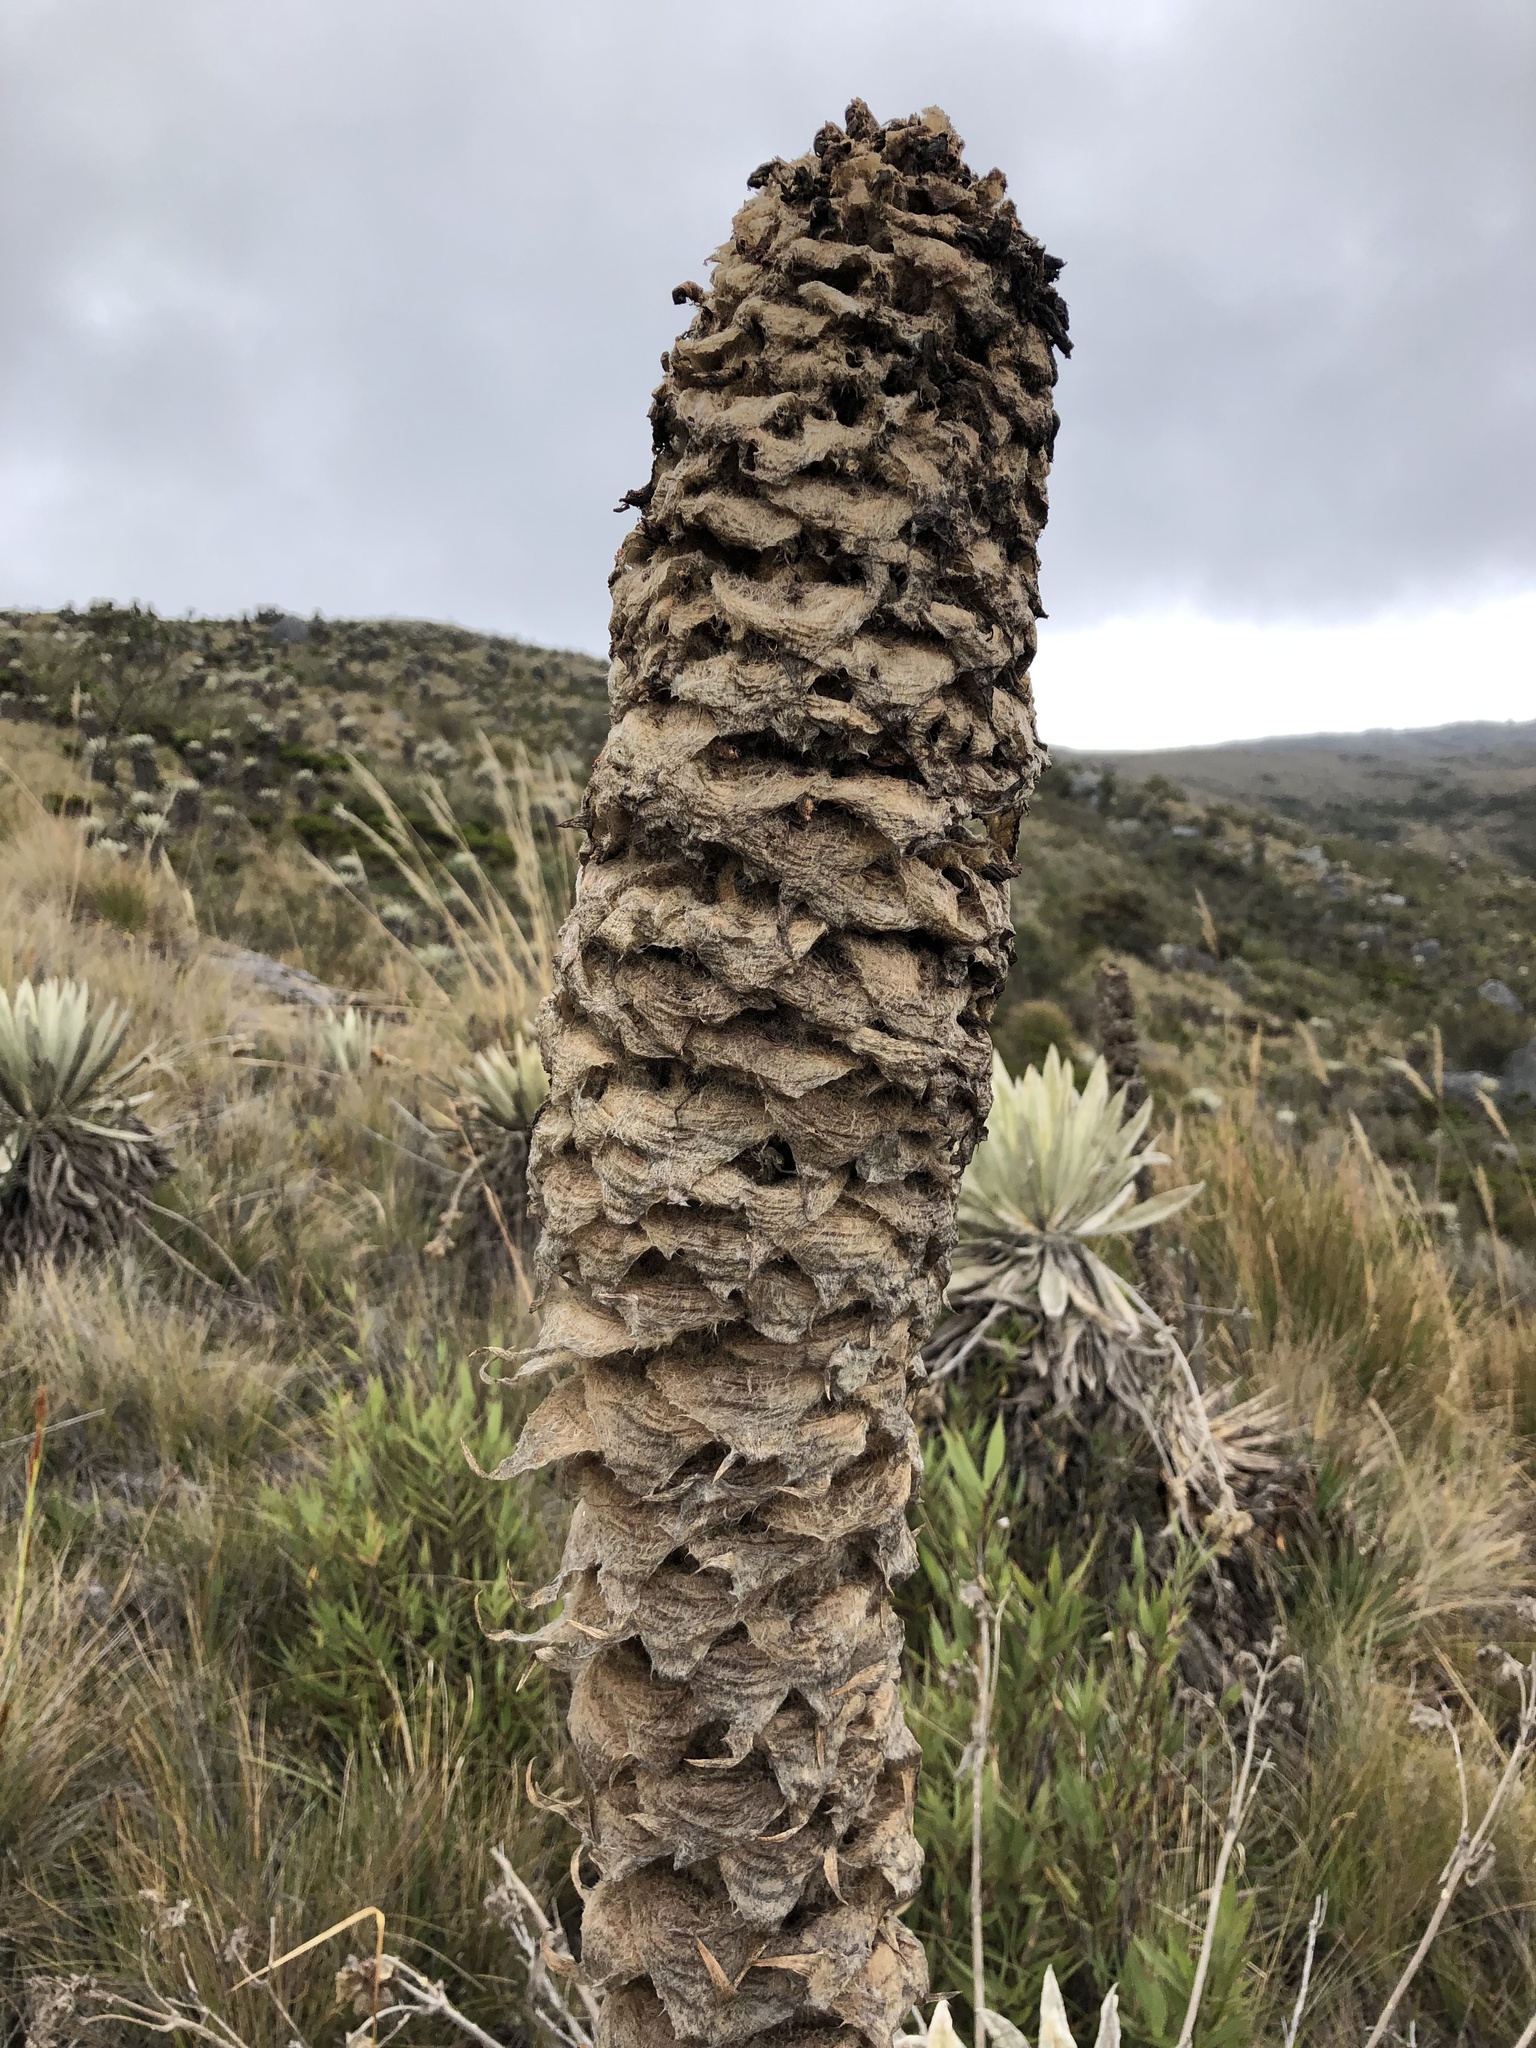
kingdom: Plantae
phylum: Tracheophyta
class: Liliopsida
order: Poales
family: Bromeliaceae
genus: Puya
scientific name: Puya trianae
